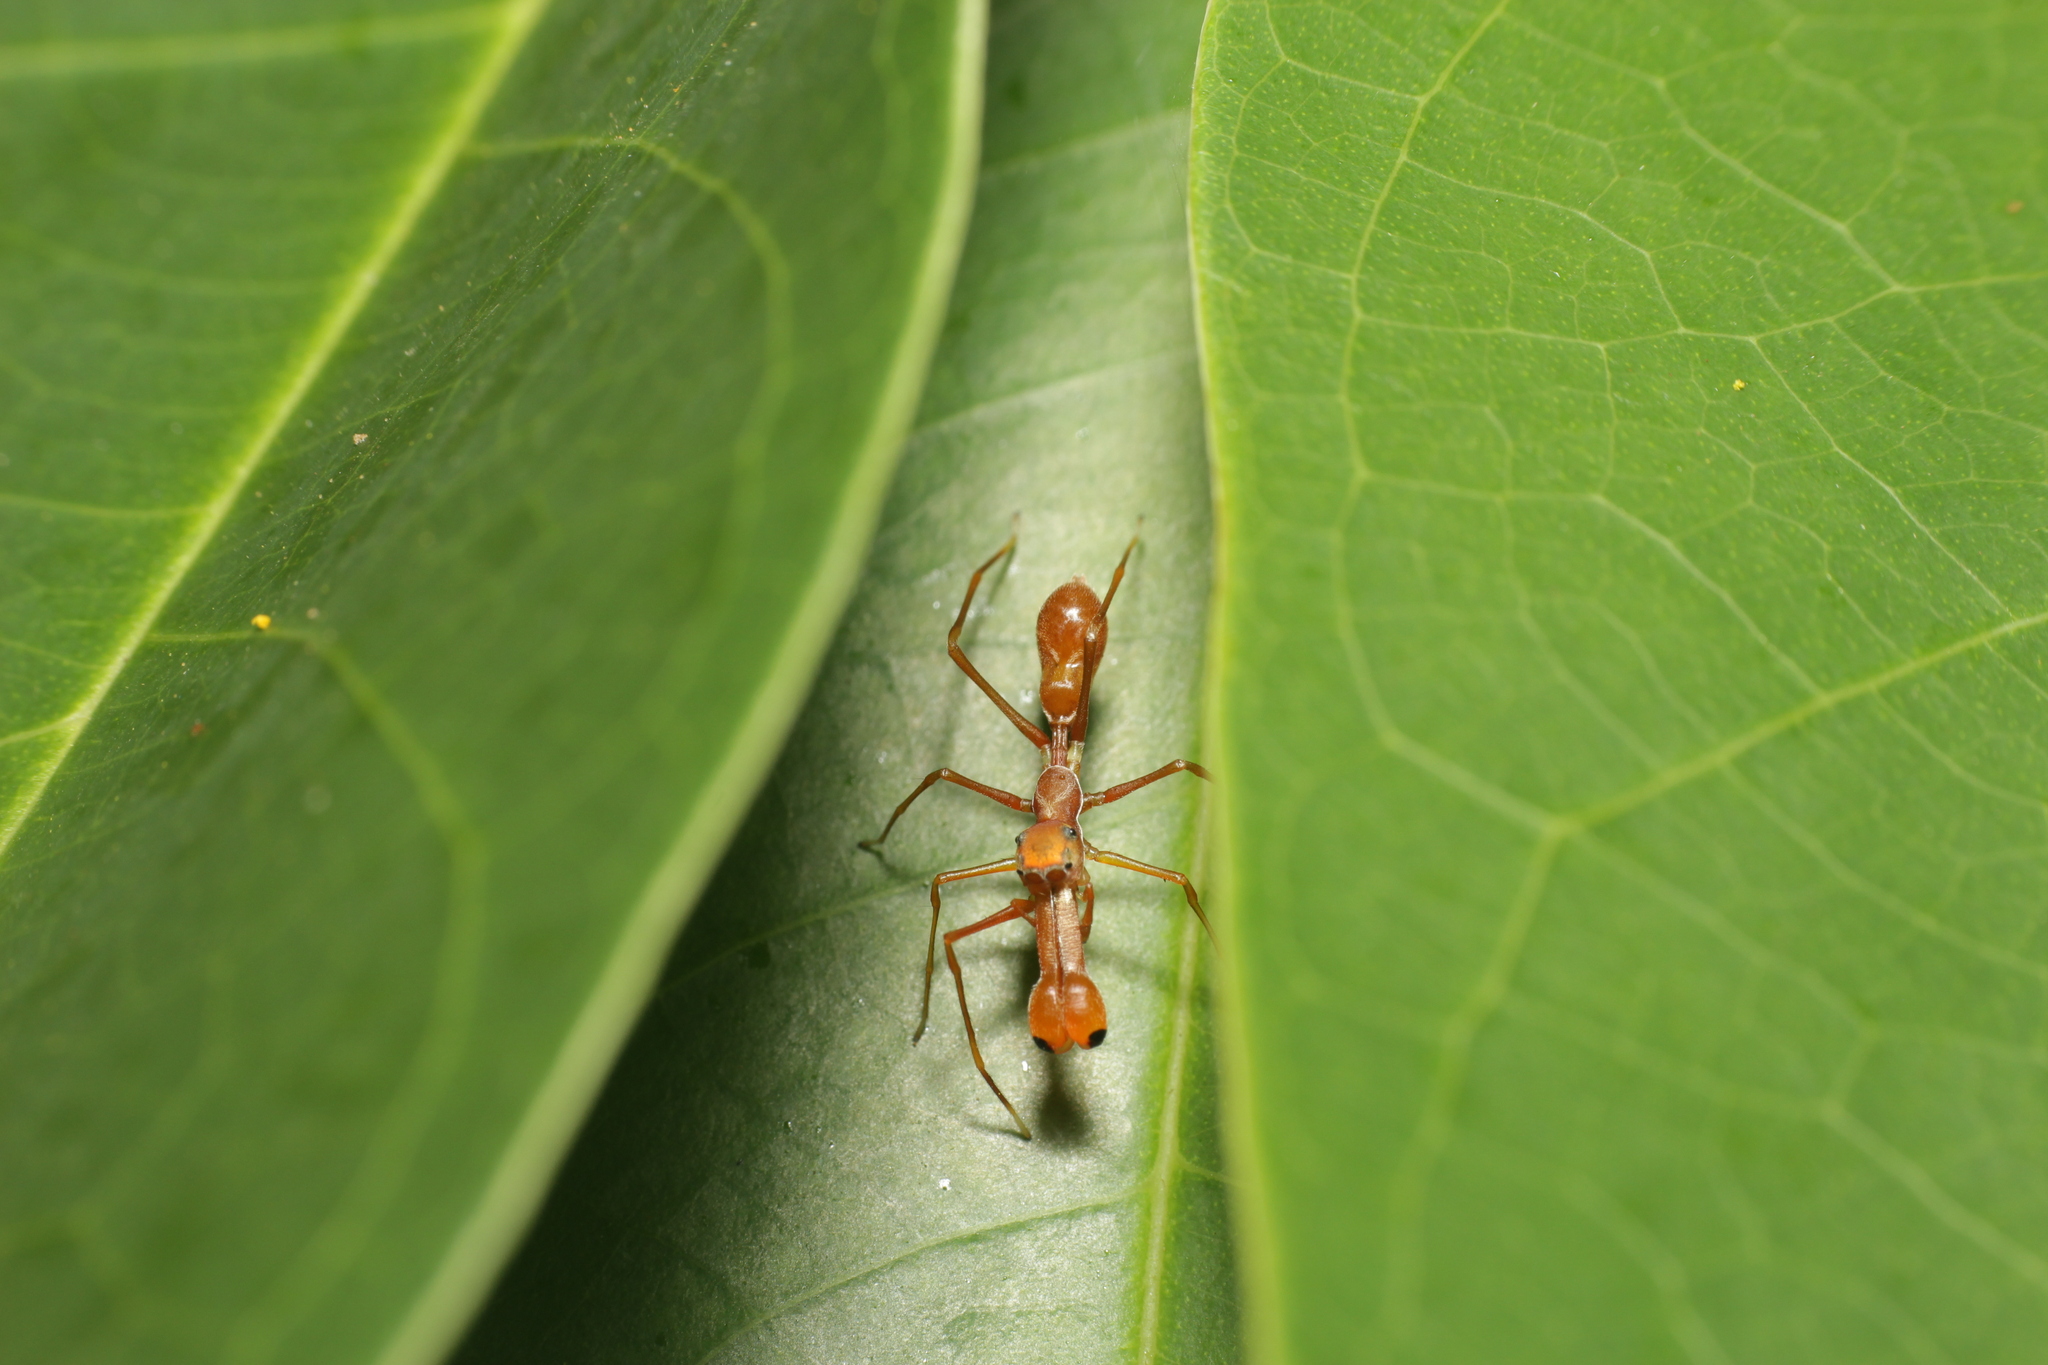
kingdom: Animalia
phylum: Arthropoda
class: Arachnida
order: Araneae
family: Salticidae
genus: Myrmaplata
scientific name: Myrmaplata plataleoides
